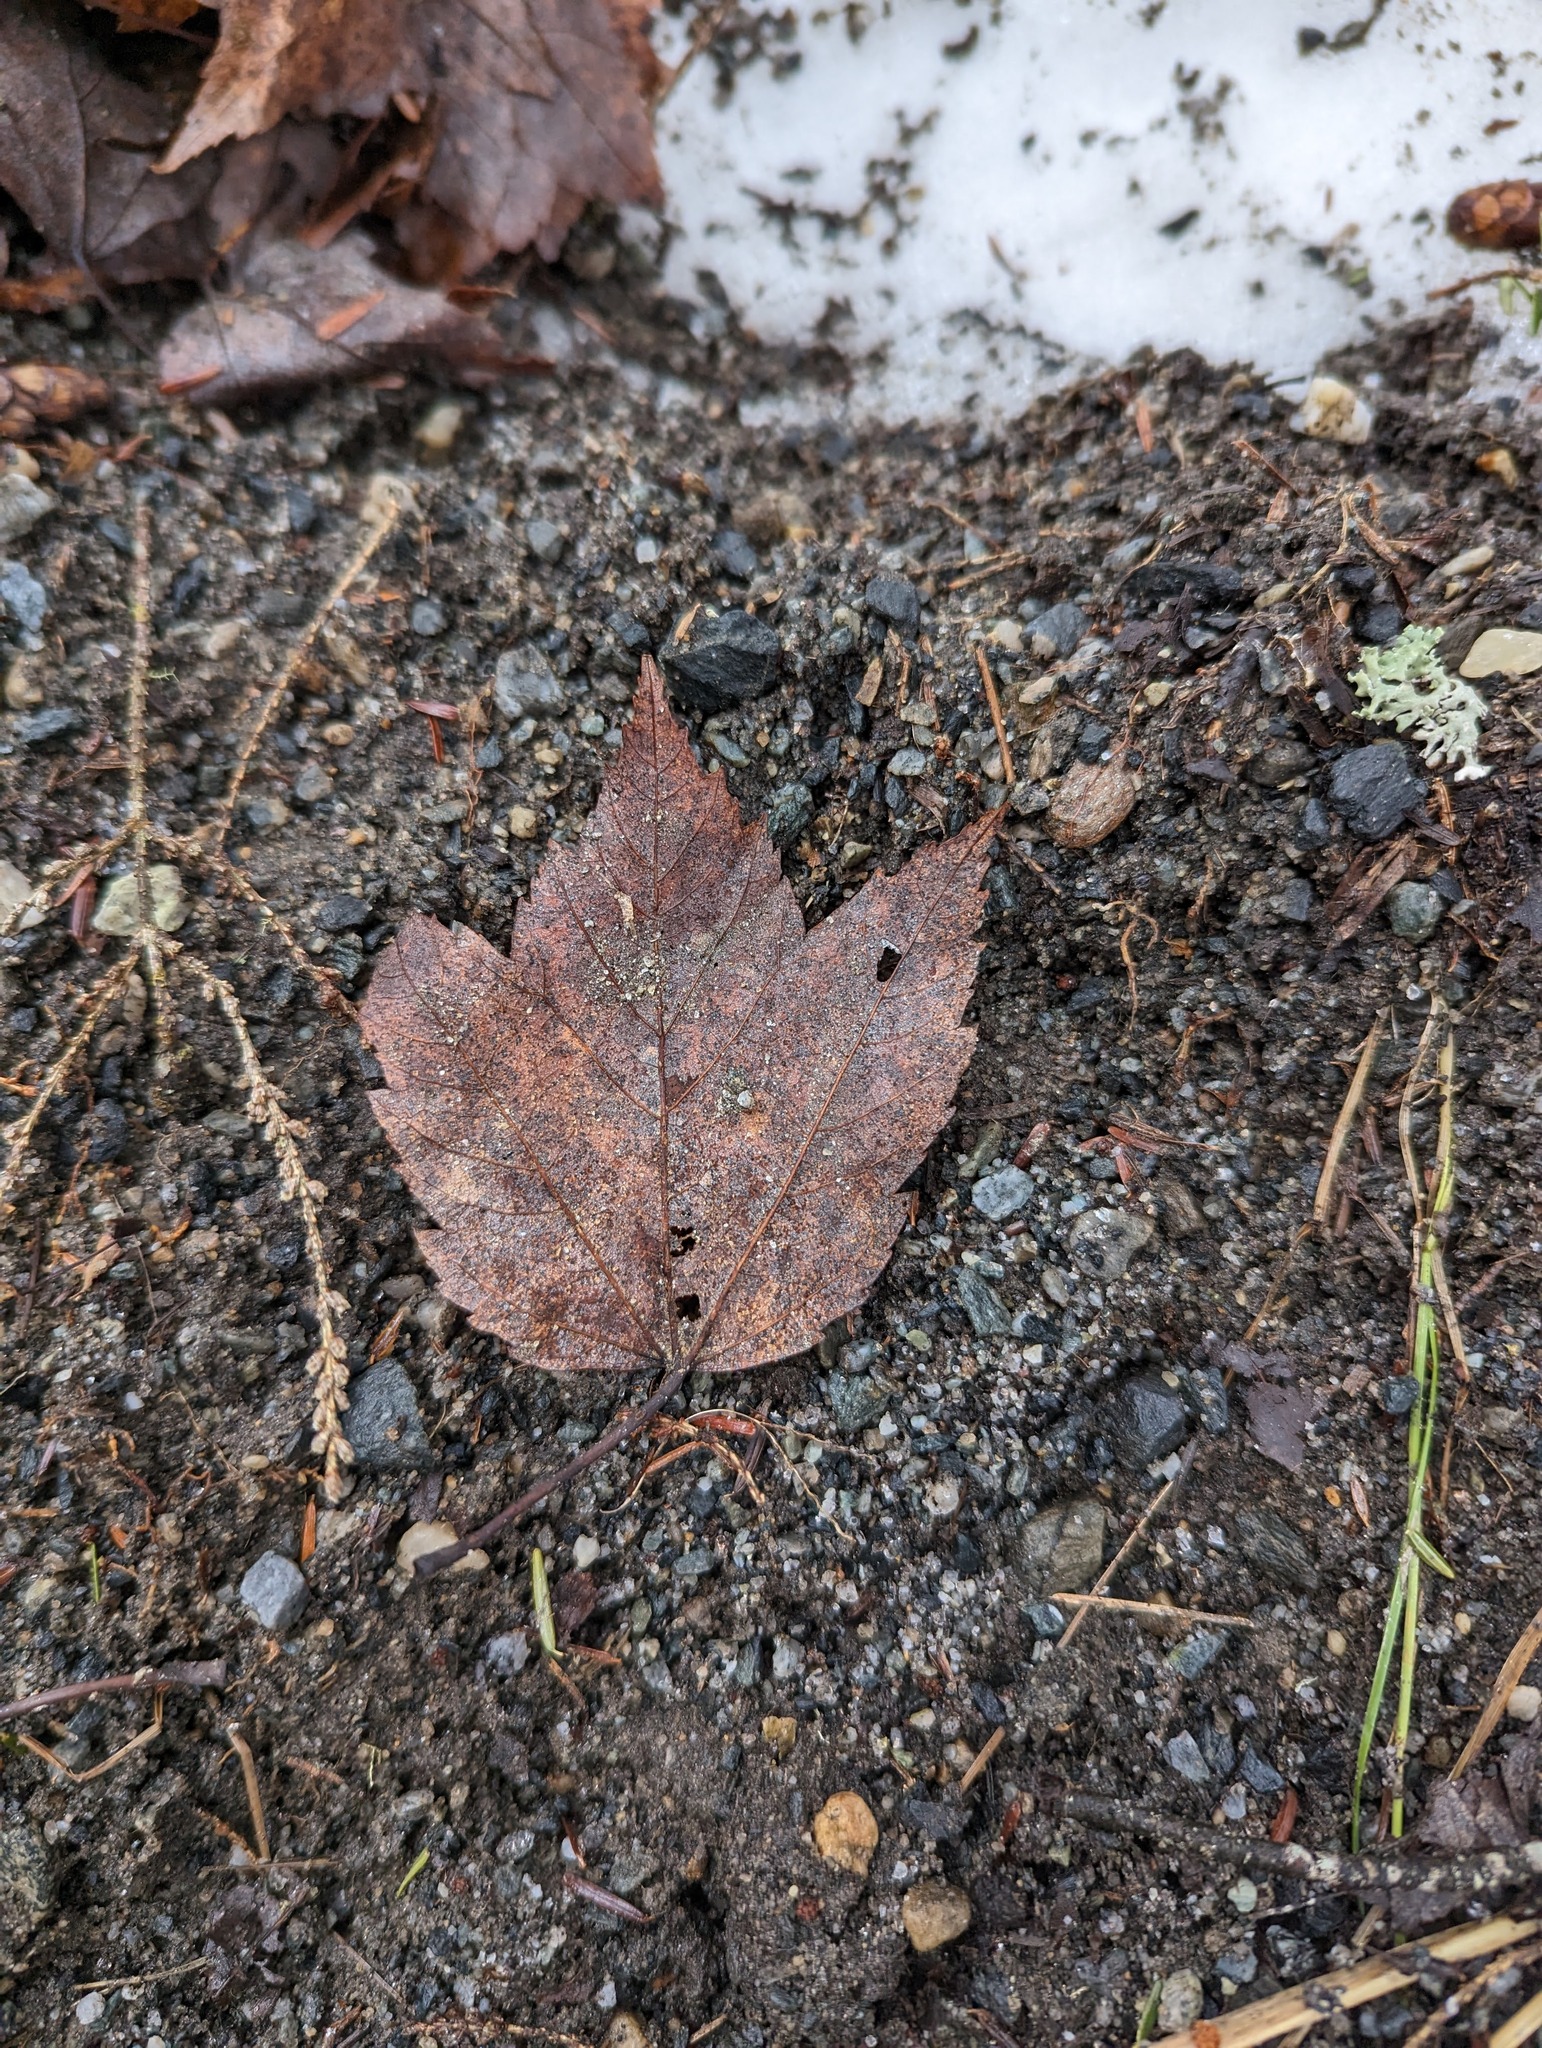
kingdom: Plantae
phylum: Tracheophyta
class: Magnoliopsida
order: Sapindales
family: Sapindaceae
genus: Acer
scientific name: Acer rubrum
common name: Red maple
